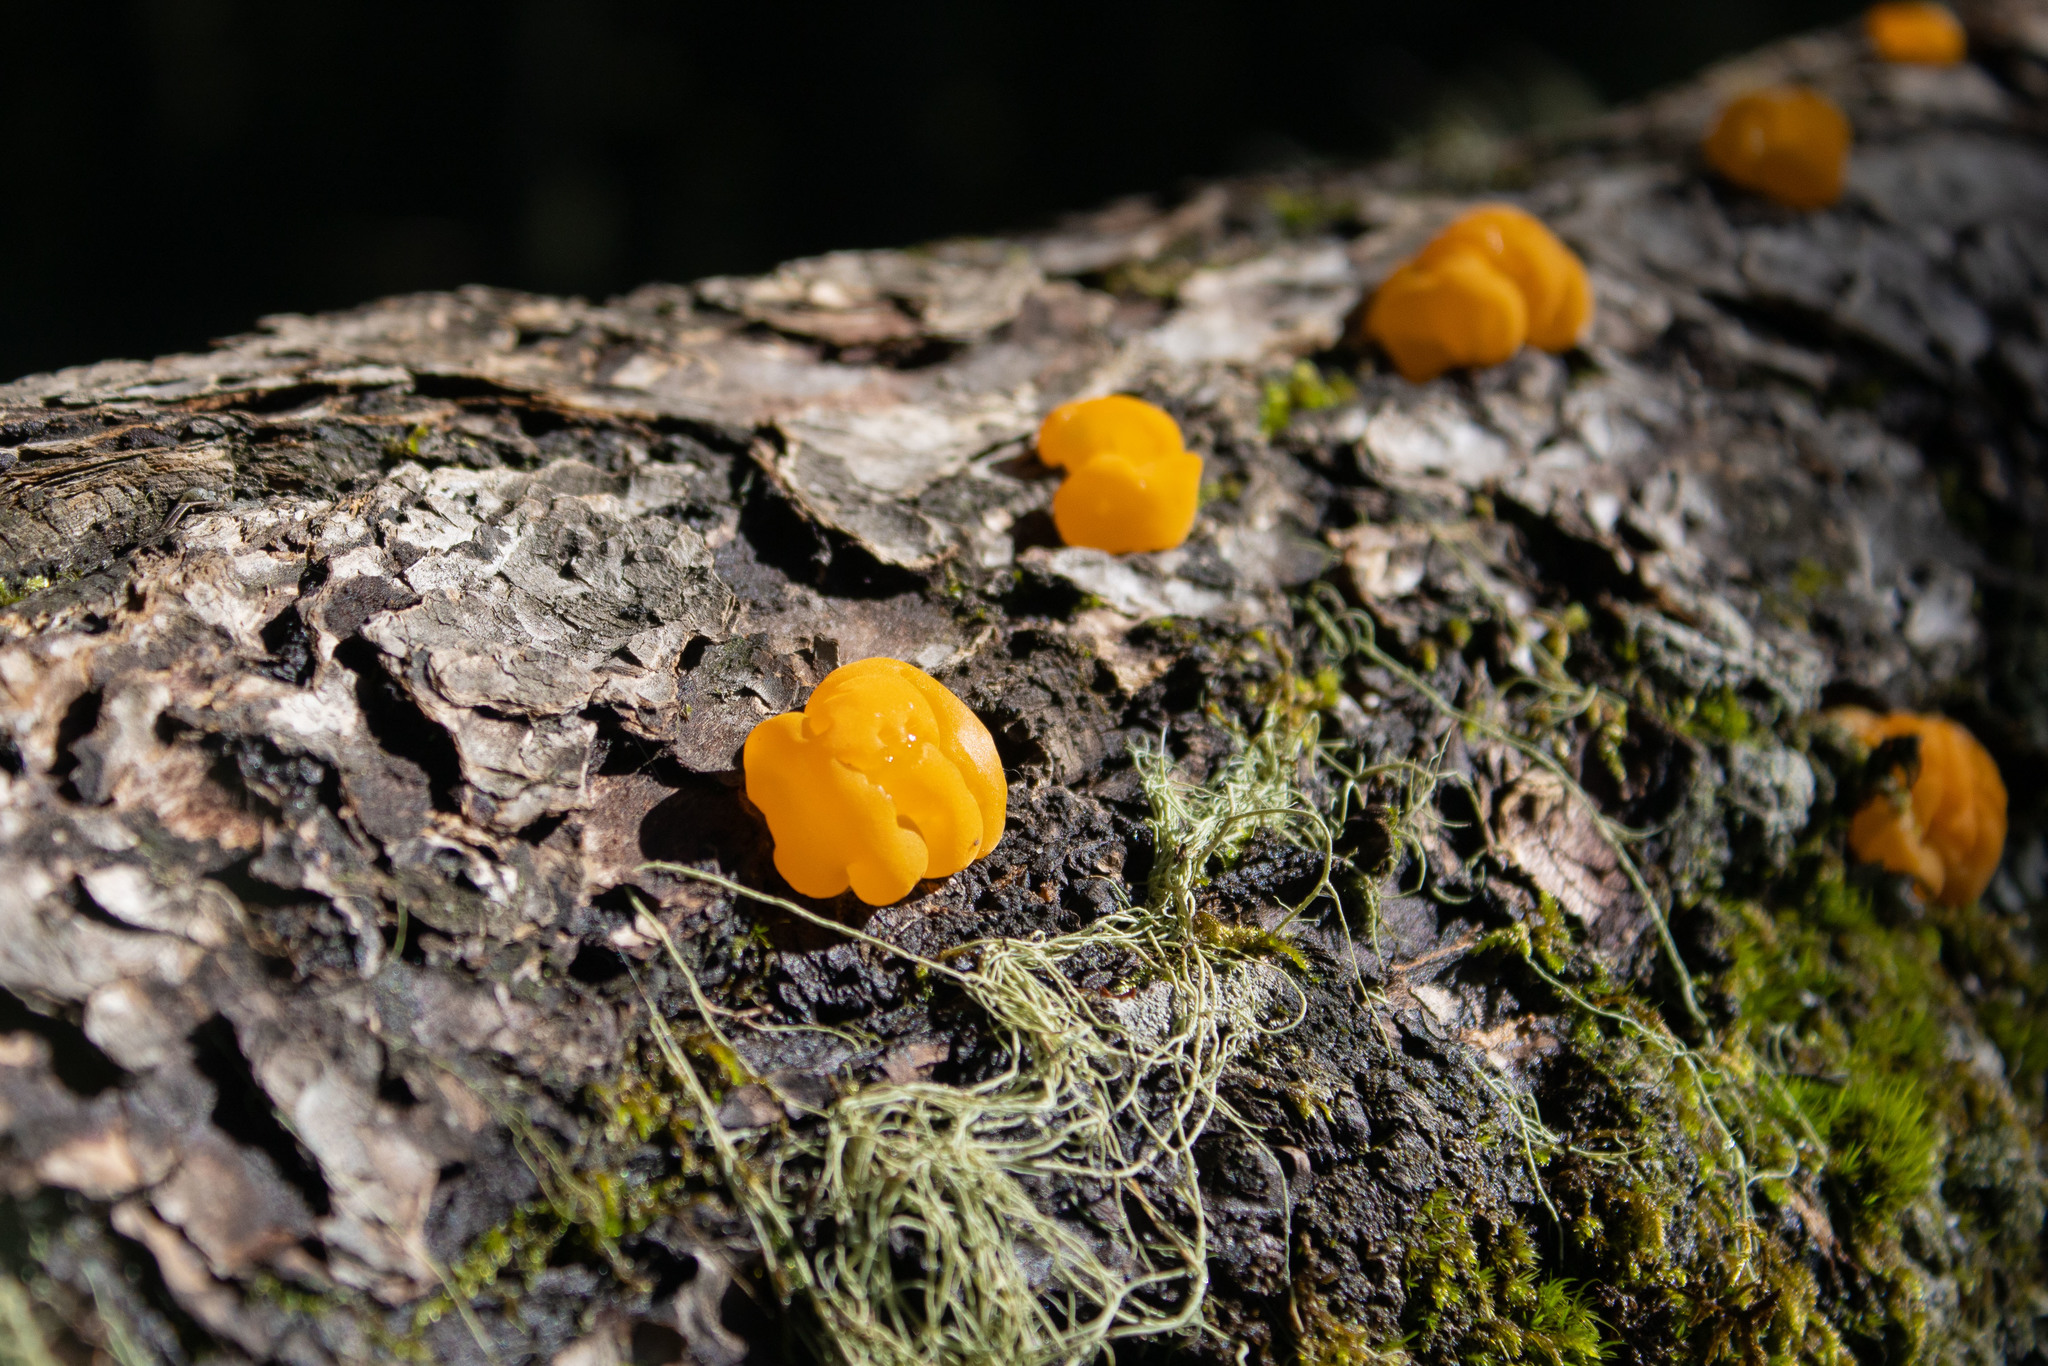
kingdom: Fungi
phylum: Basidiomycota
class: Dacrymycetes
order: Dacrymycetales
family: Dacrymycetaceae
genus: Dacrymyces
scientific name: Dacrymyces chrysospermus
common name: Orange jelly spot
